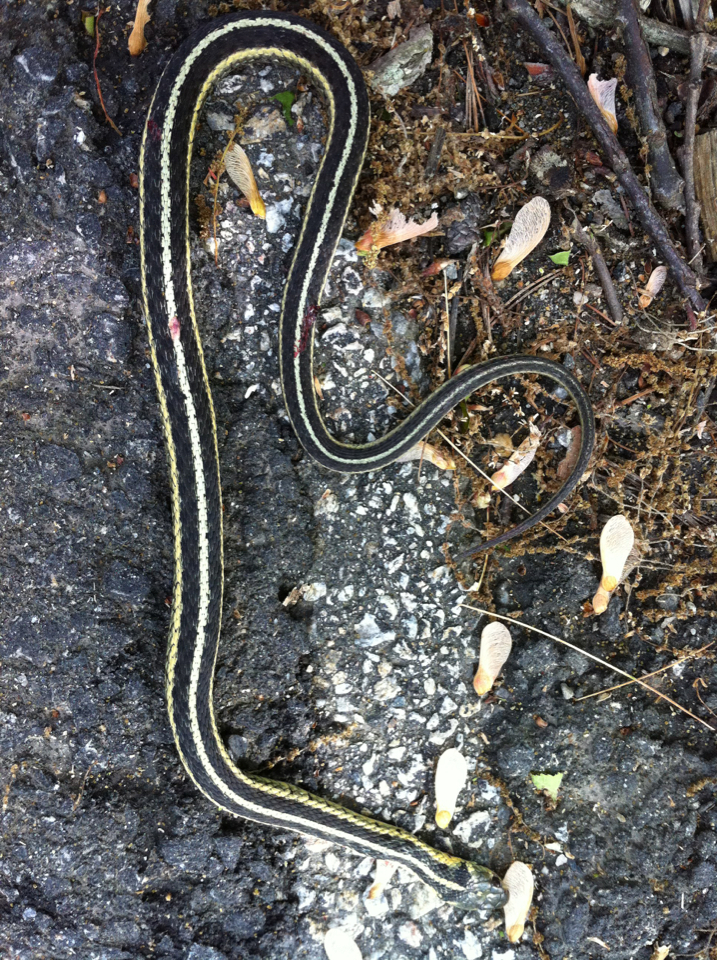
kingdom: Animalia
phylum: Chordata
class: Squamata
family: Colubridae
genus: Thamnophis
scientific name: Thamnophis sirtalis
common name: Common garter snake
